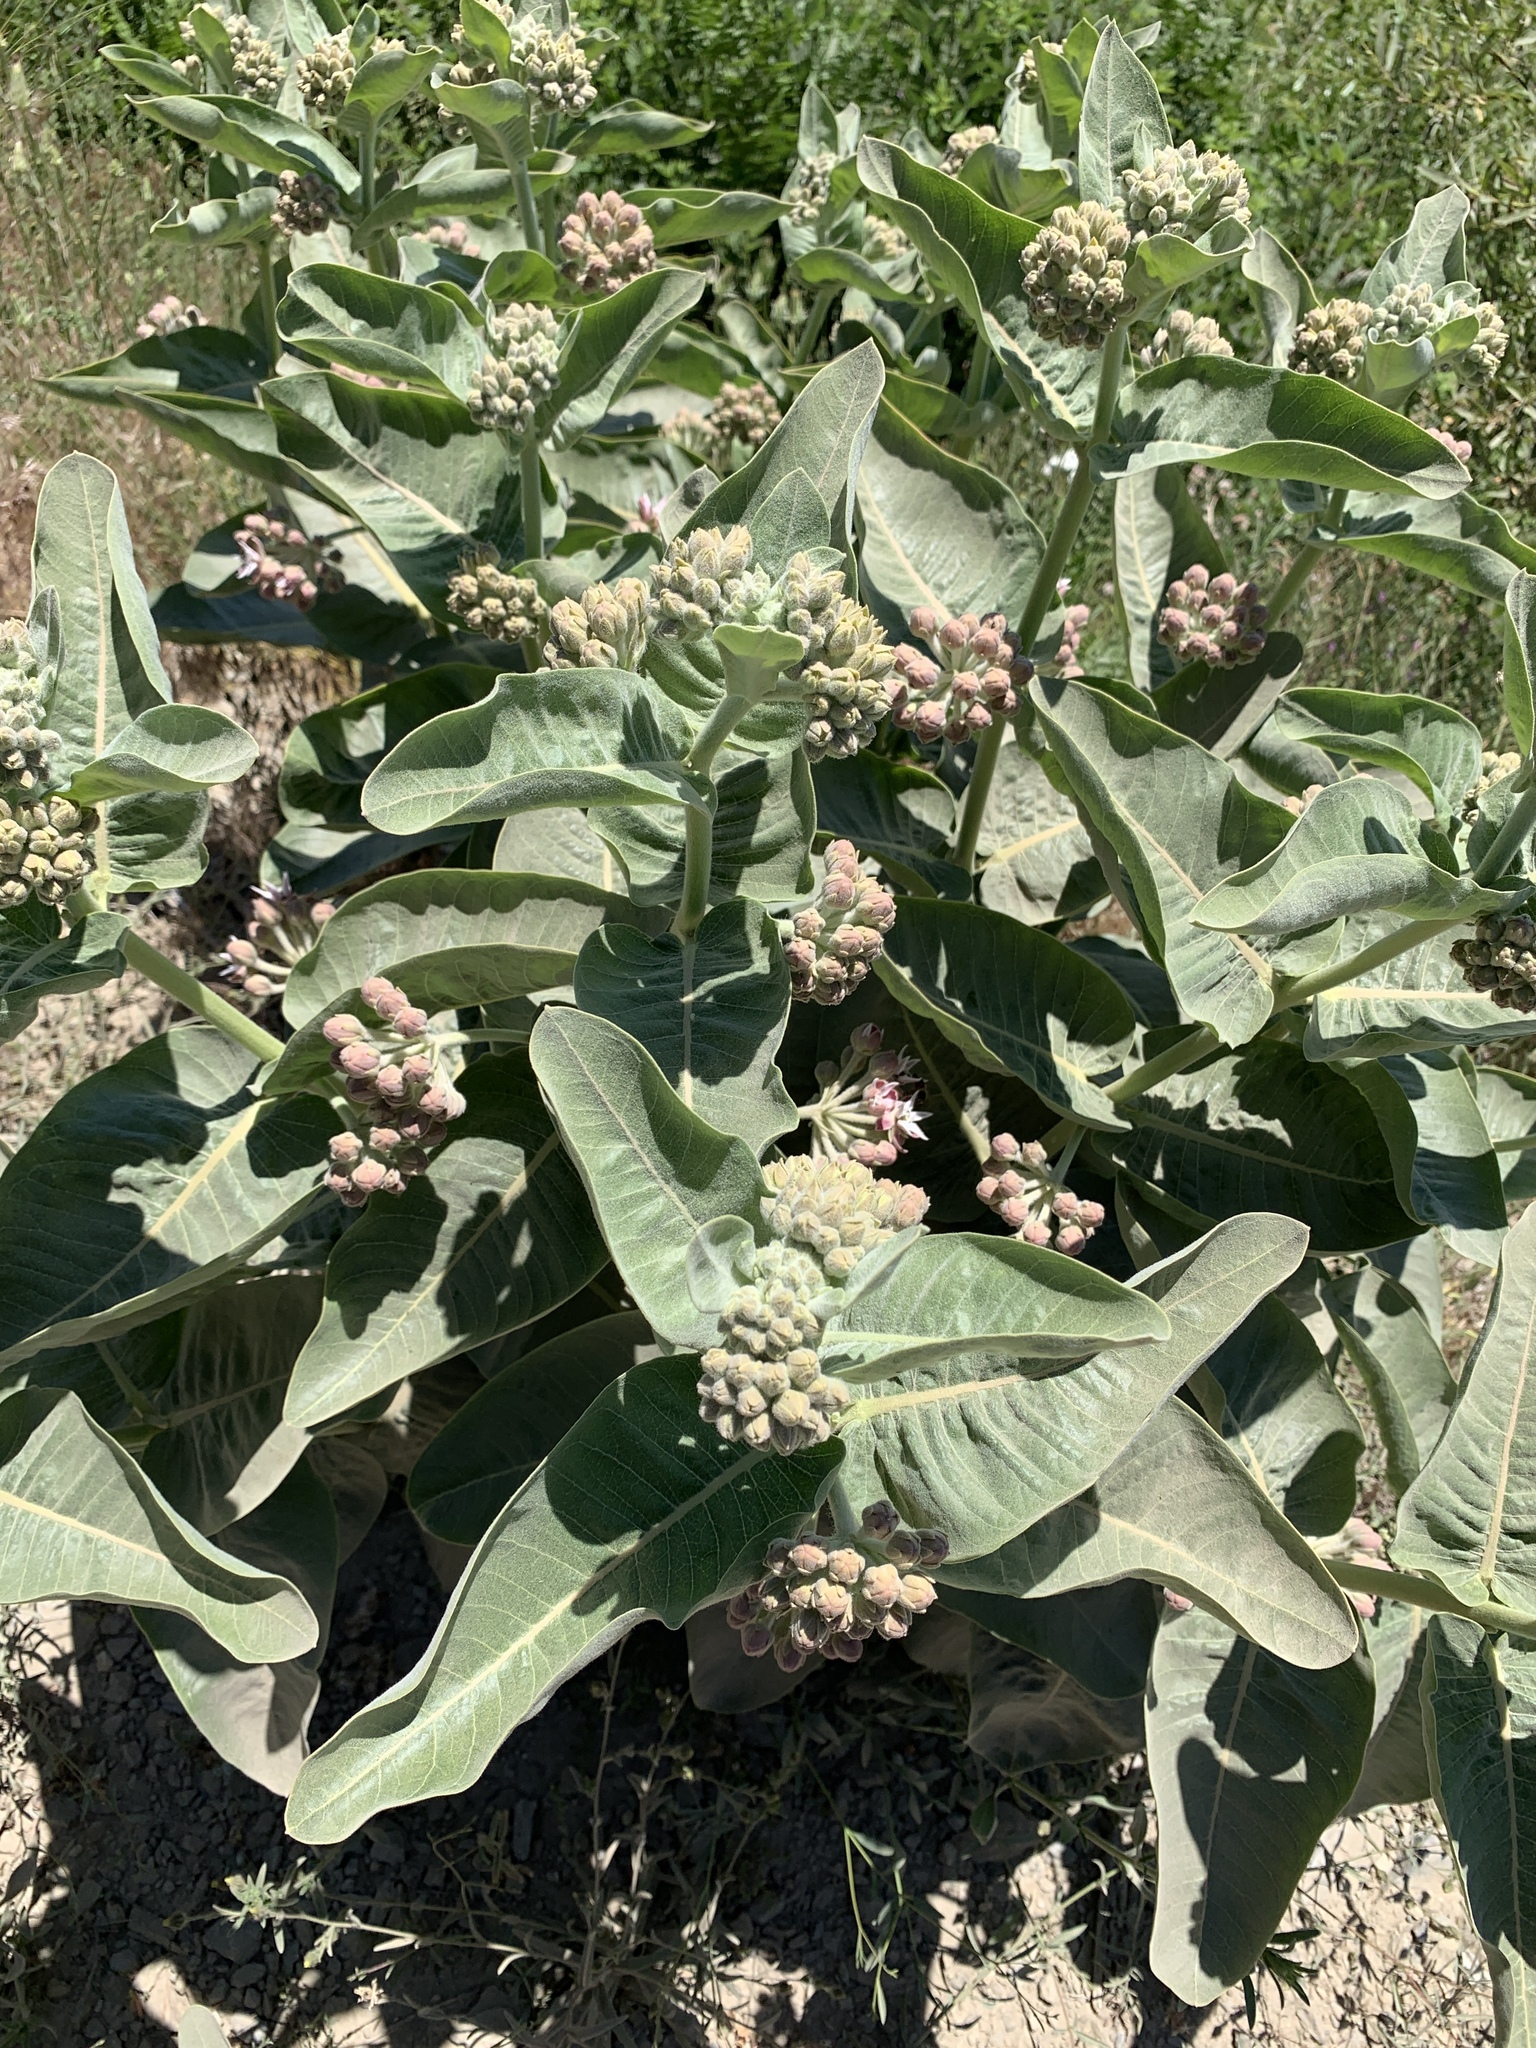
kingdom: Plantae
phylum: Tracheophyta
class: Magnoliopsida
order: Gentianales
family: Apocynaceae
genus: Asclepias
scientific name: Asclepias speciosa
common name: Showy milkweed
